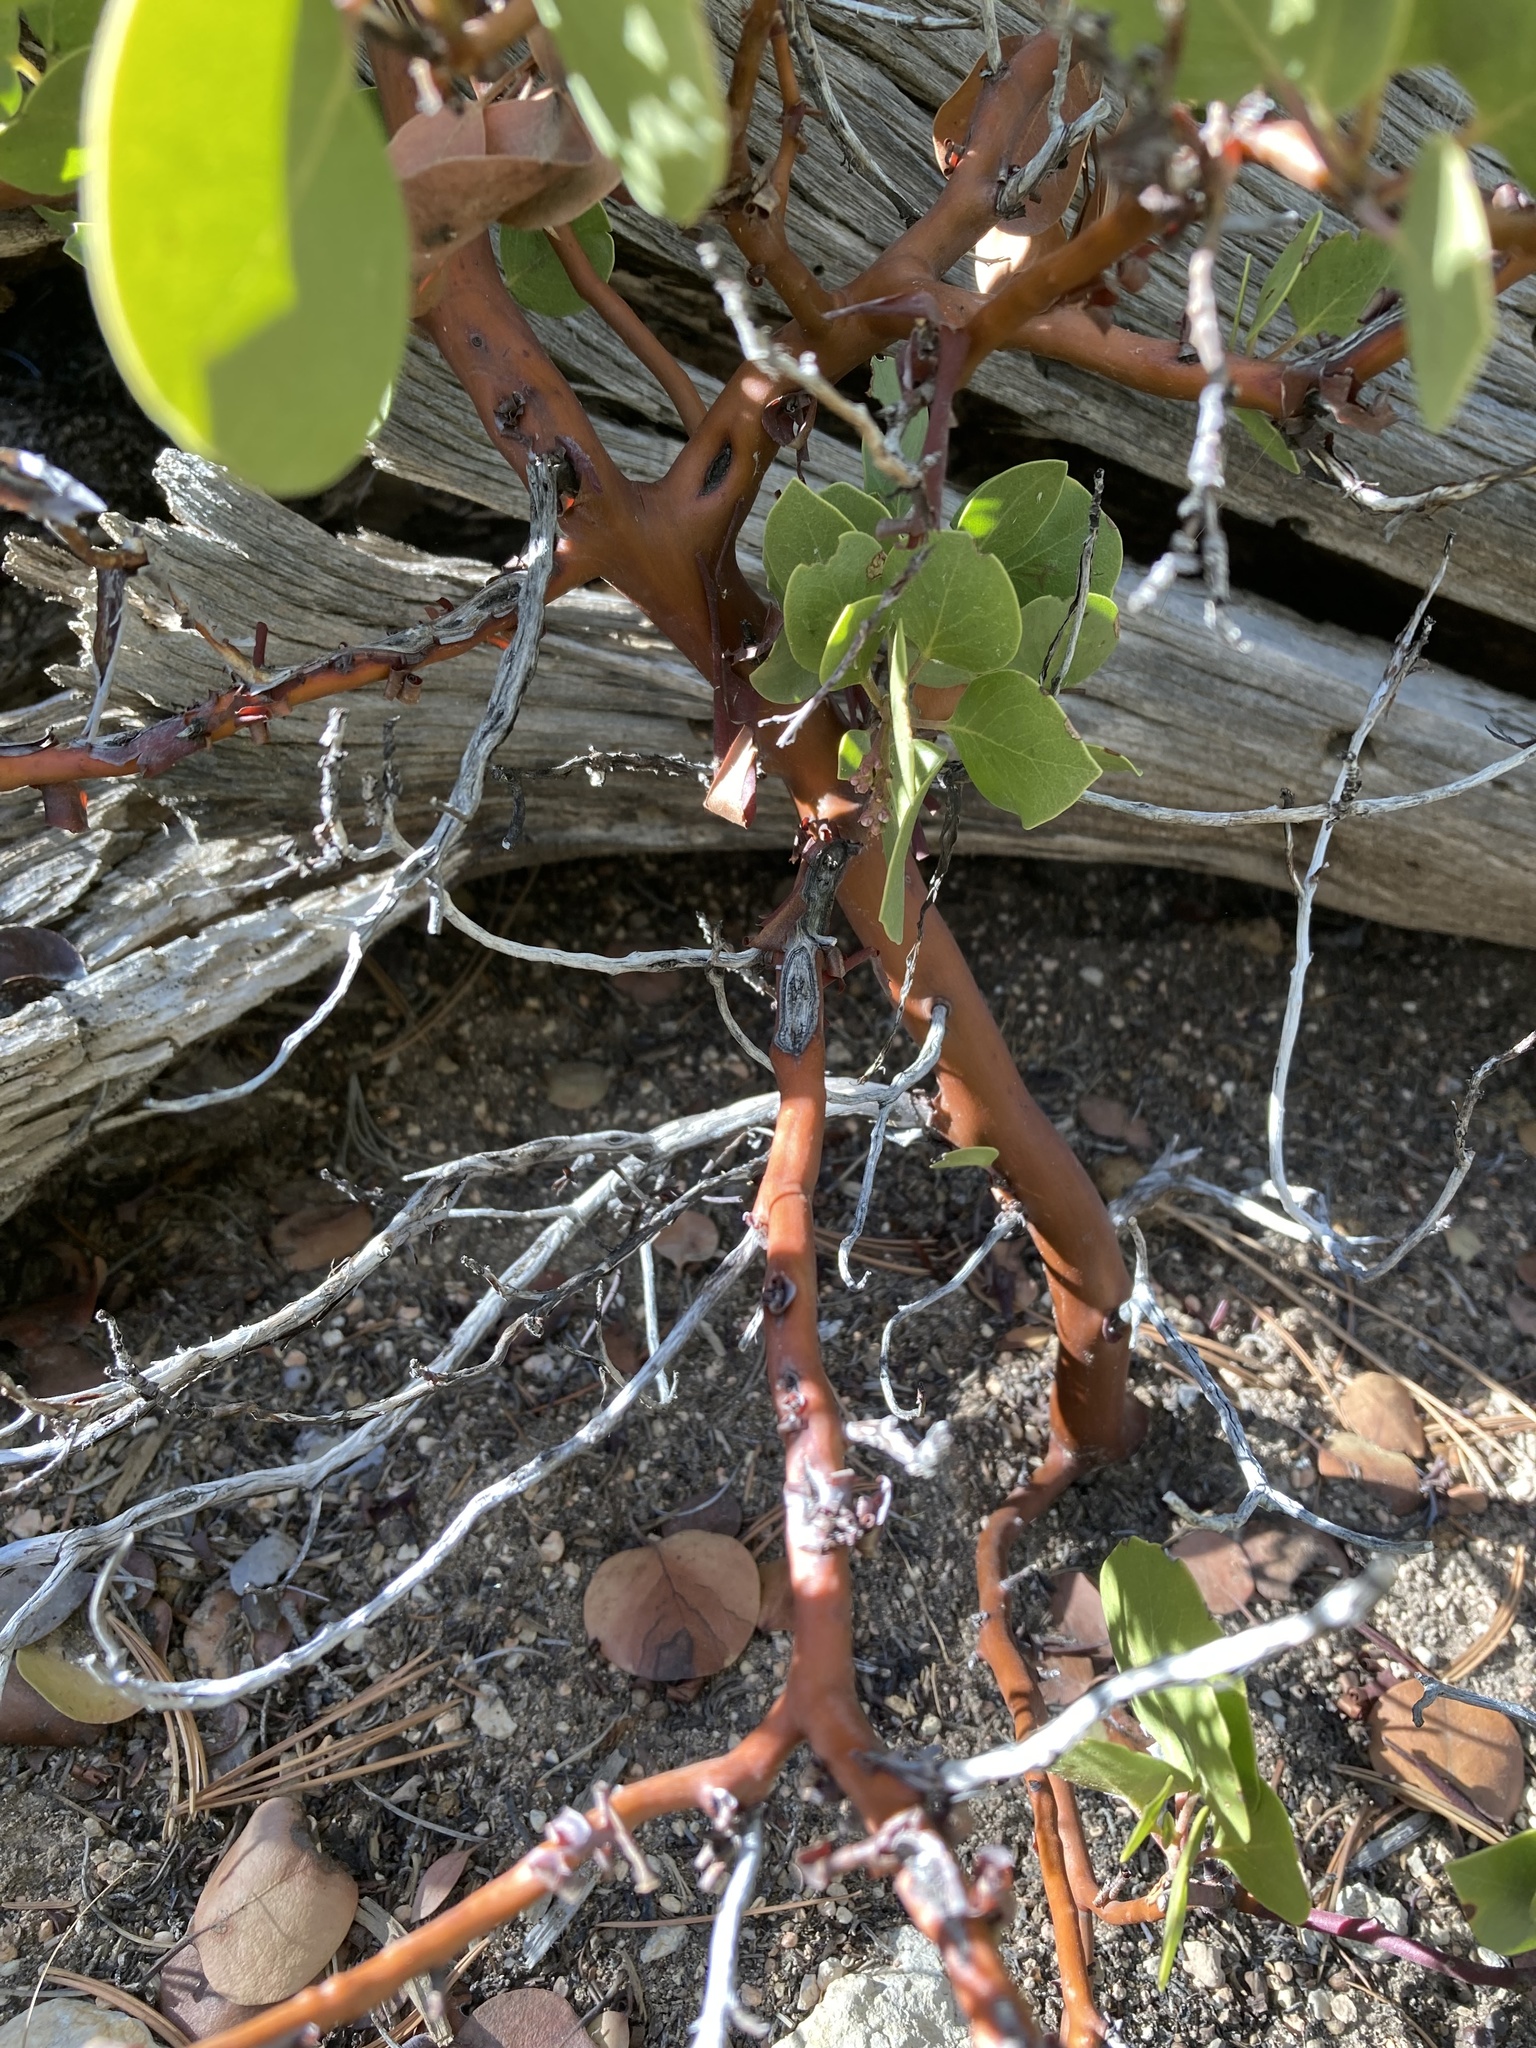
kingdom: Plantae
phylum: Tracheophyta
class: Magnoliopsida
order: Ericales
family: Ericaceae
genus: Arctostaphylos
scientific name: Arctostaphylos patula
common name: Green-leaf manzanita
